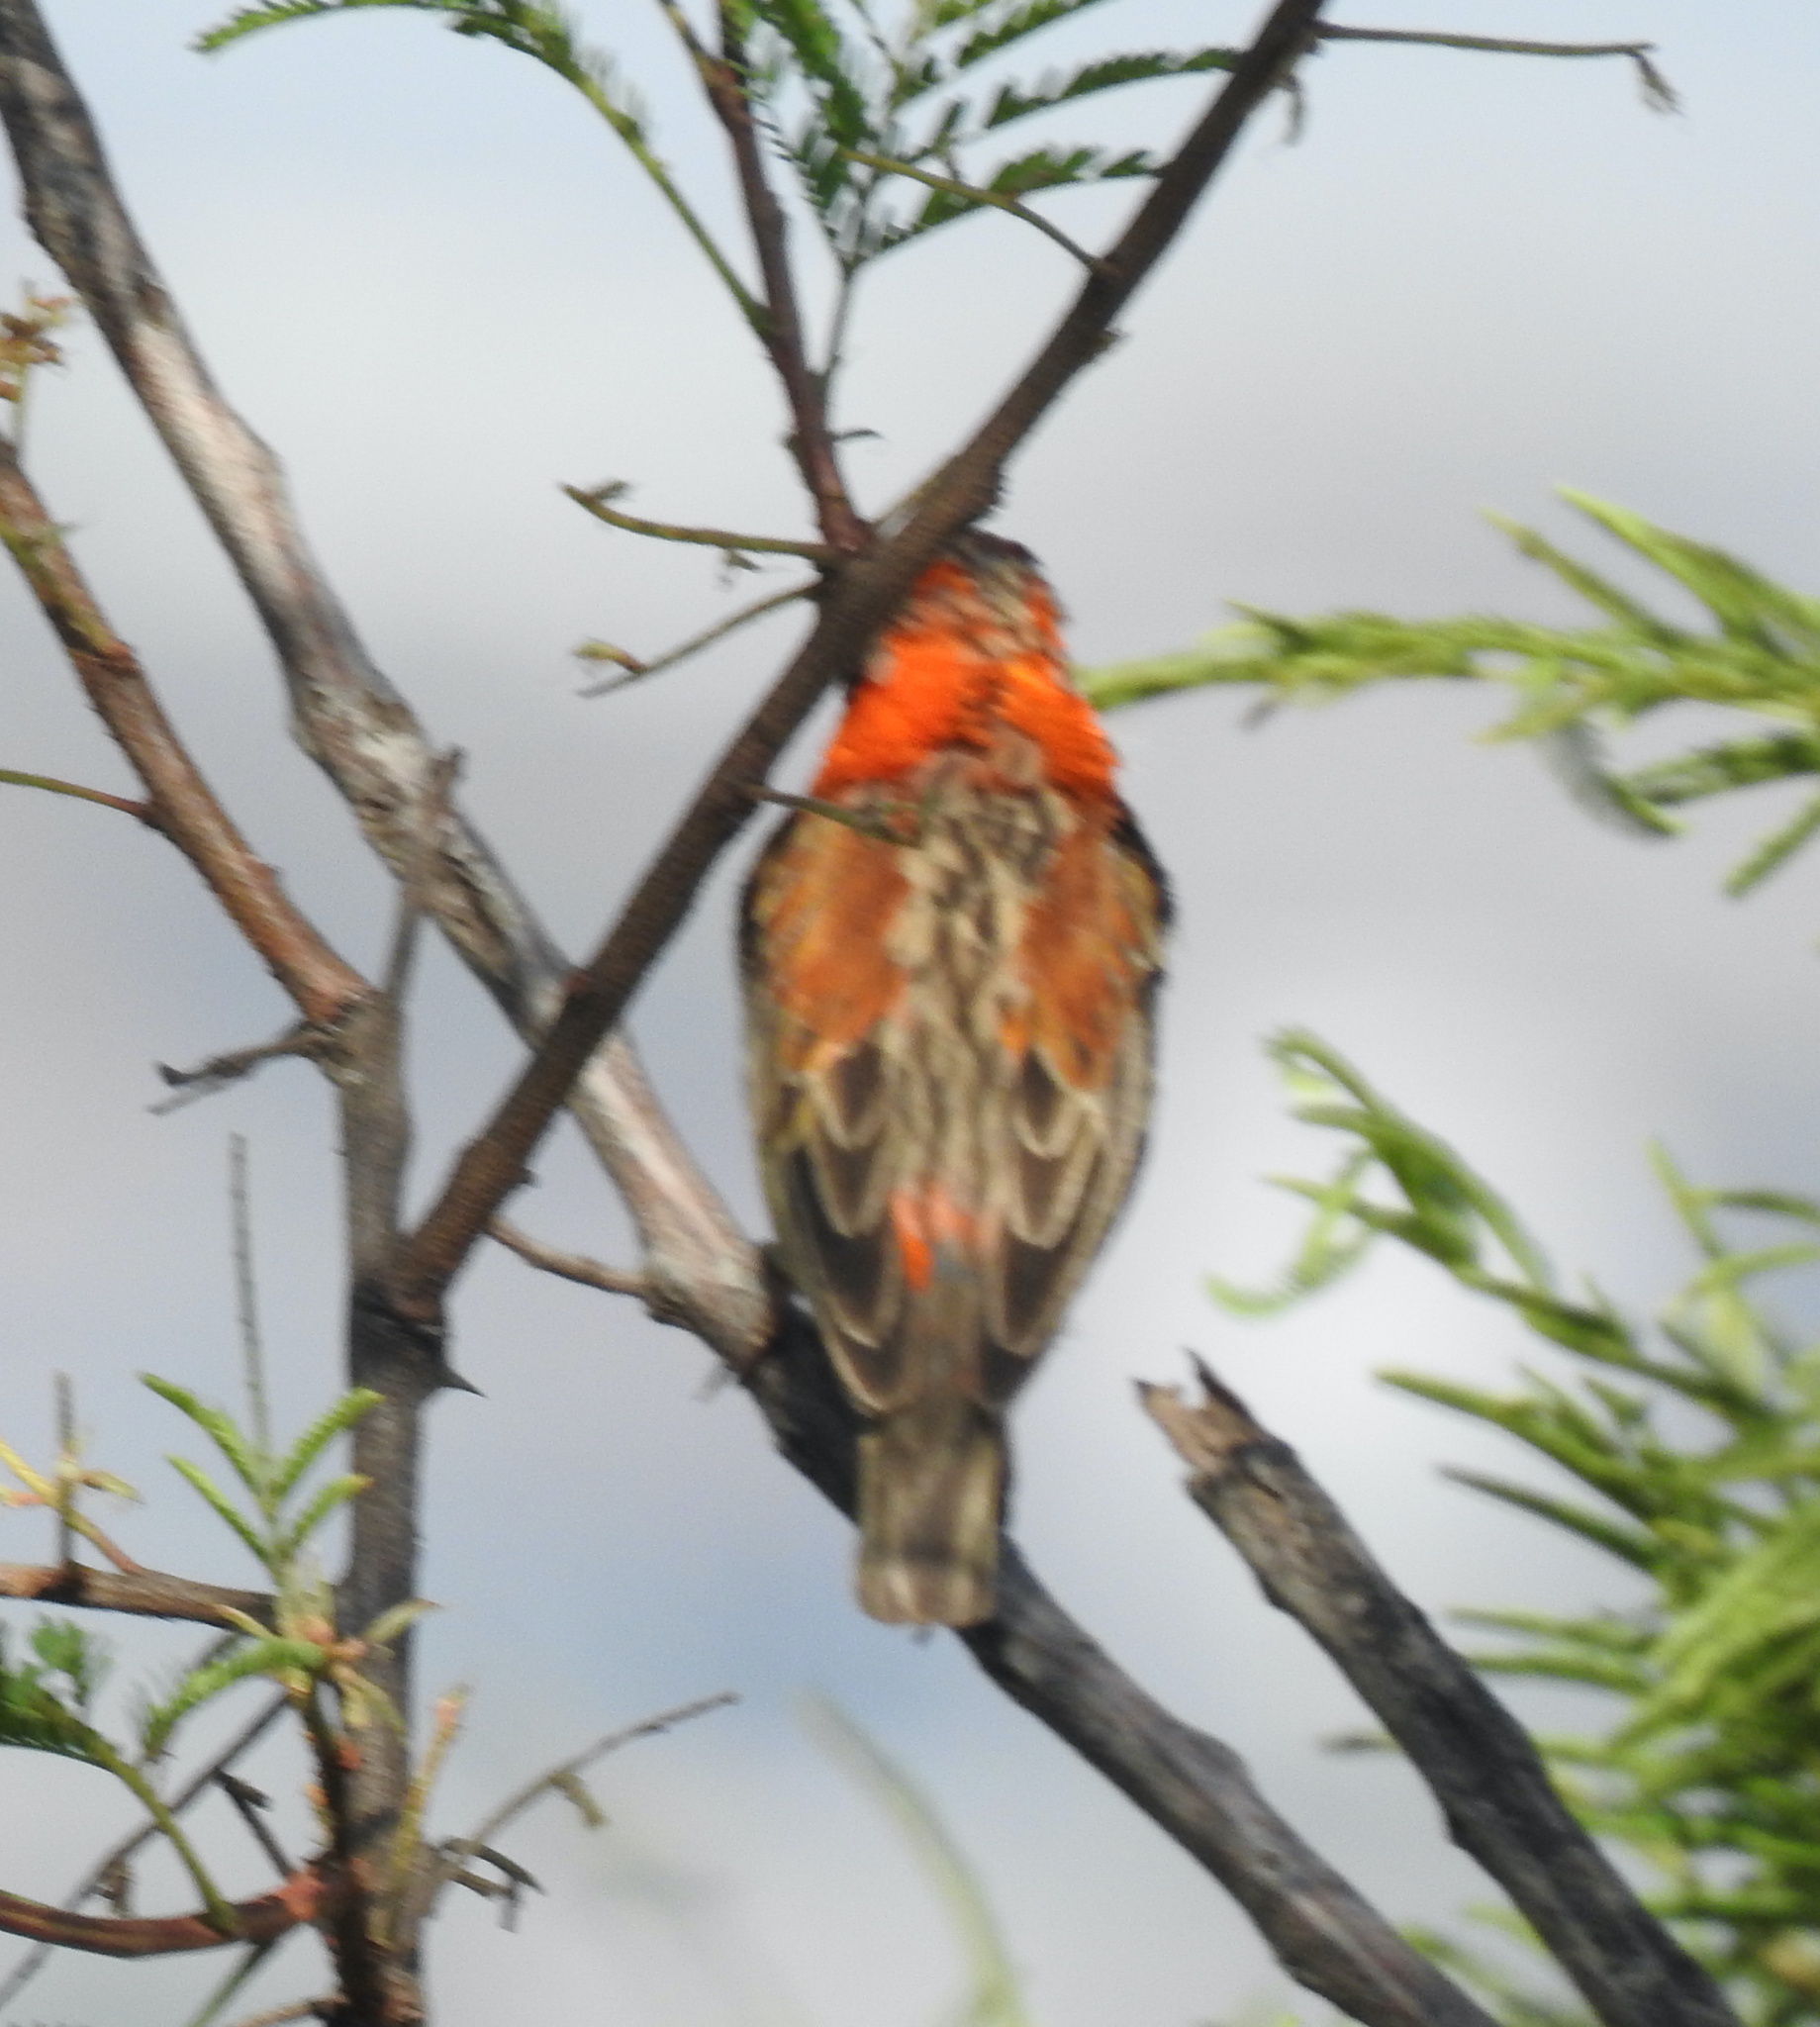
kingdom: Animalia
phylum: Chordata
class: Aves
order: Passeriformes
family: Ploceidae
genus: Euplectes
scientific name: Euplectes orix
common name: Southern red bishop
